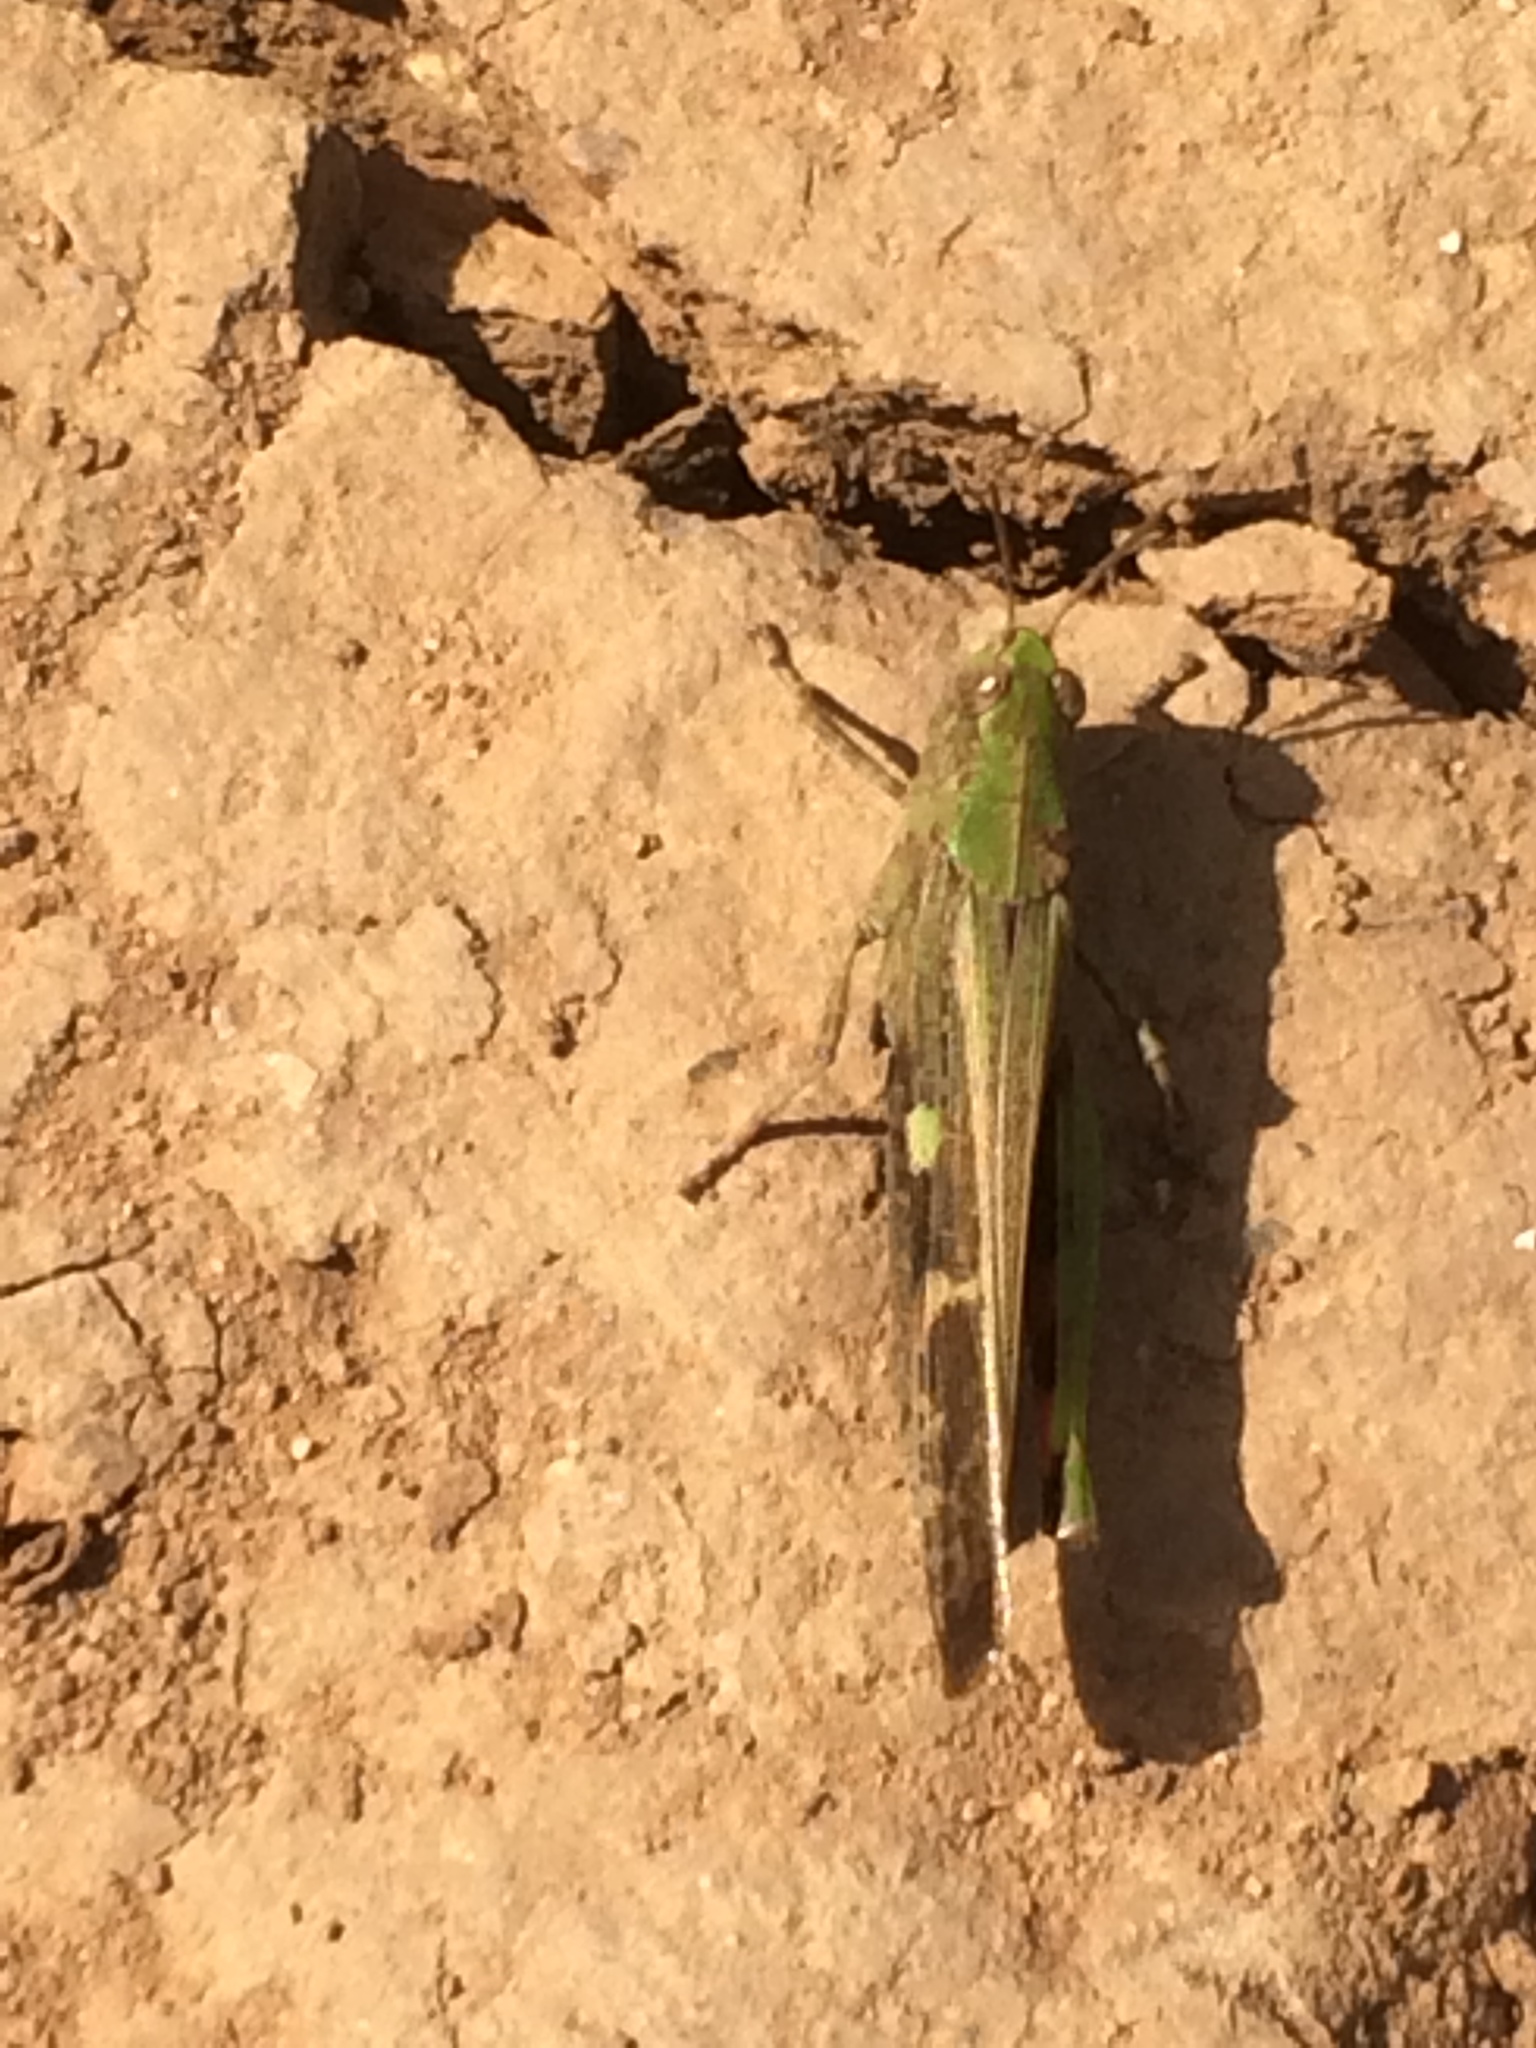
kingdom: Animalia
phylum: Arthropoda
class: Insecta
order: Orthoptera
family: Acrididae
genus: Aiolopus
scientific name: Aiolopus strepens
